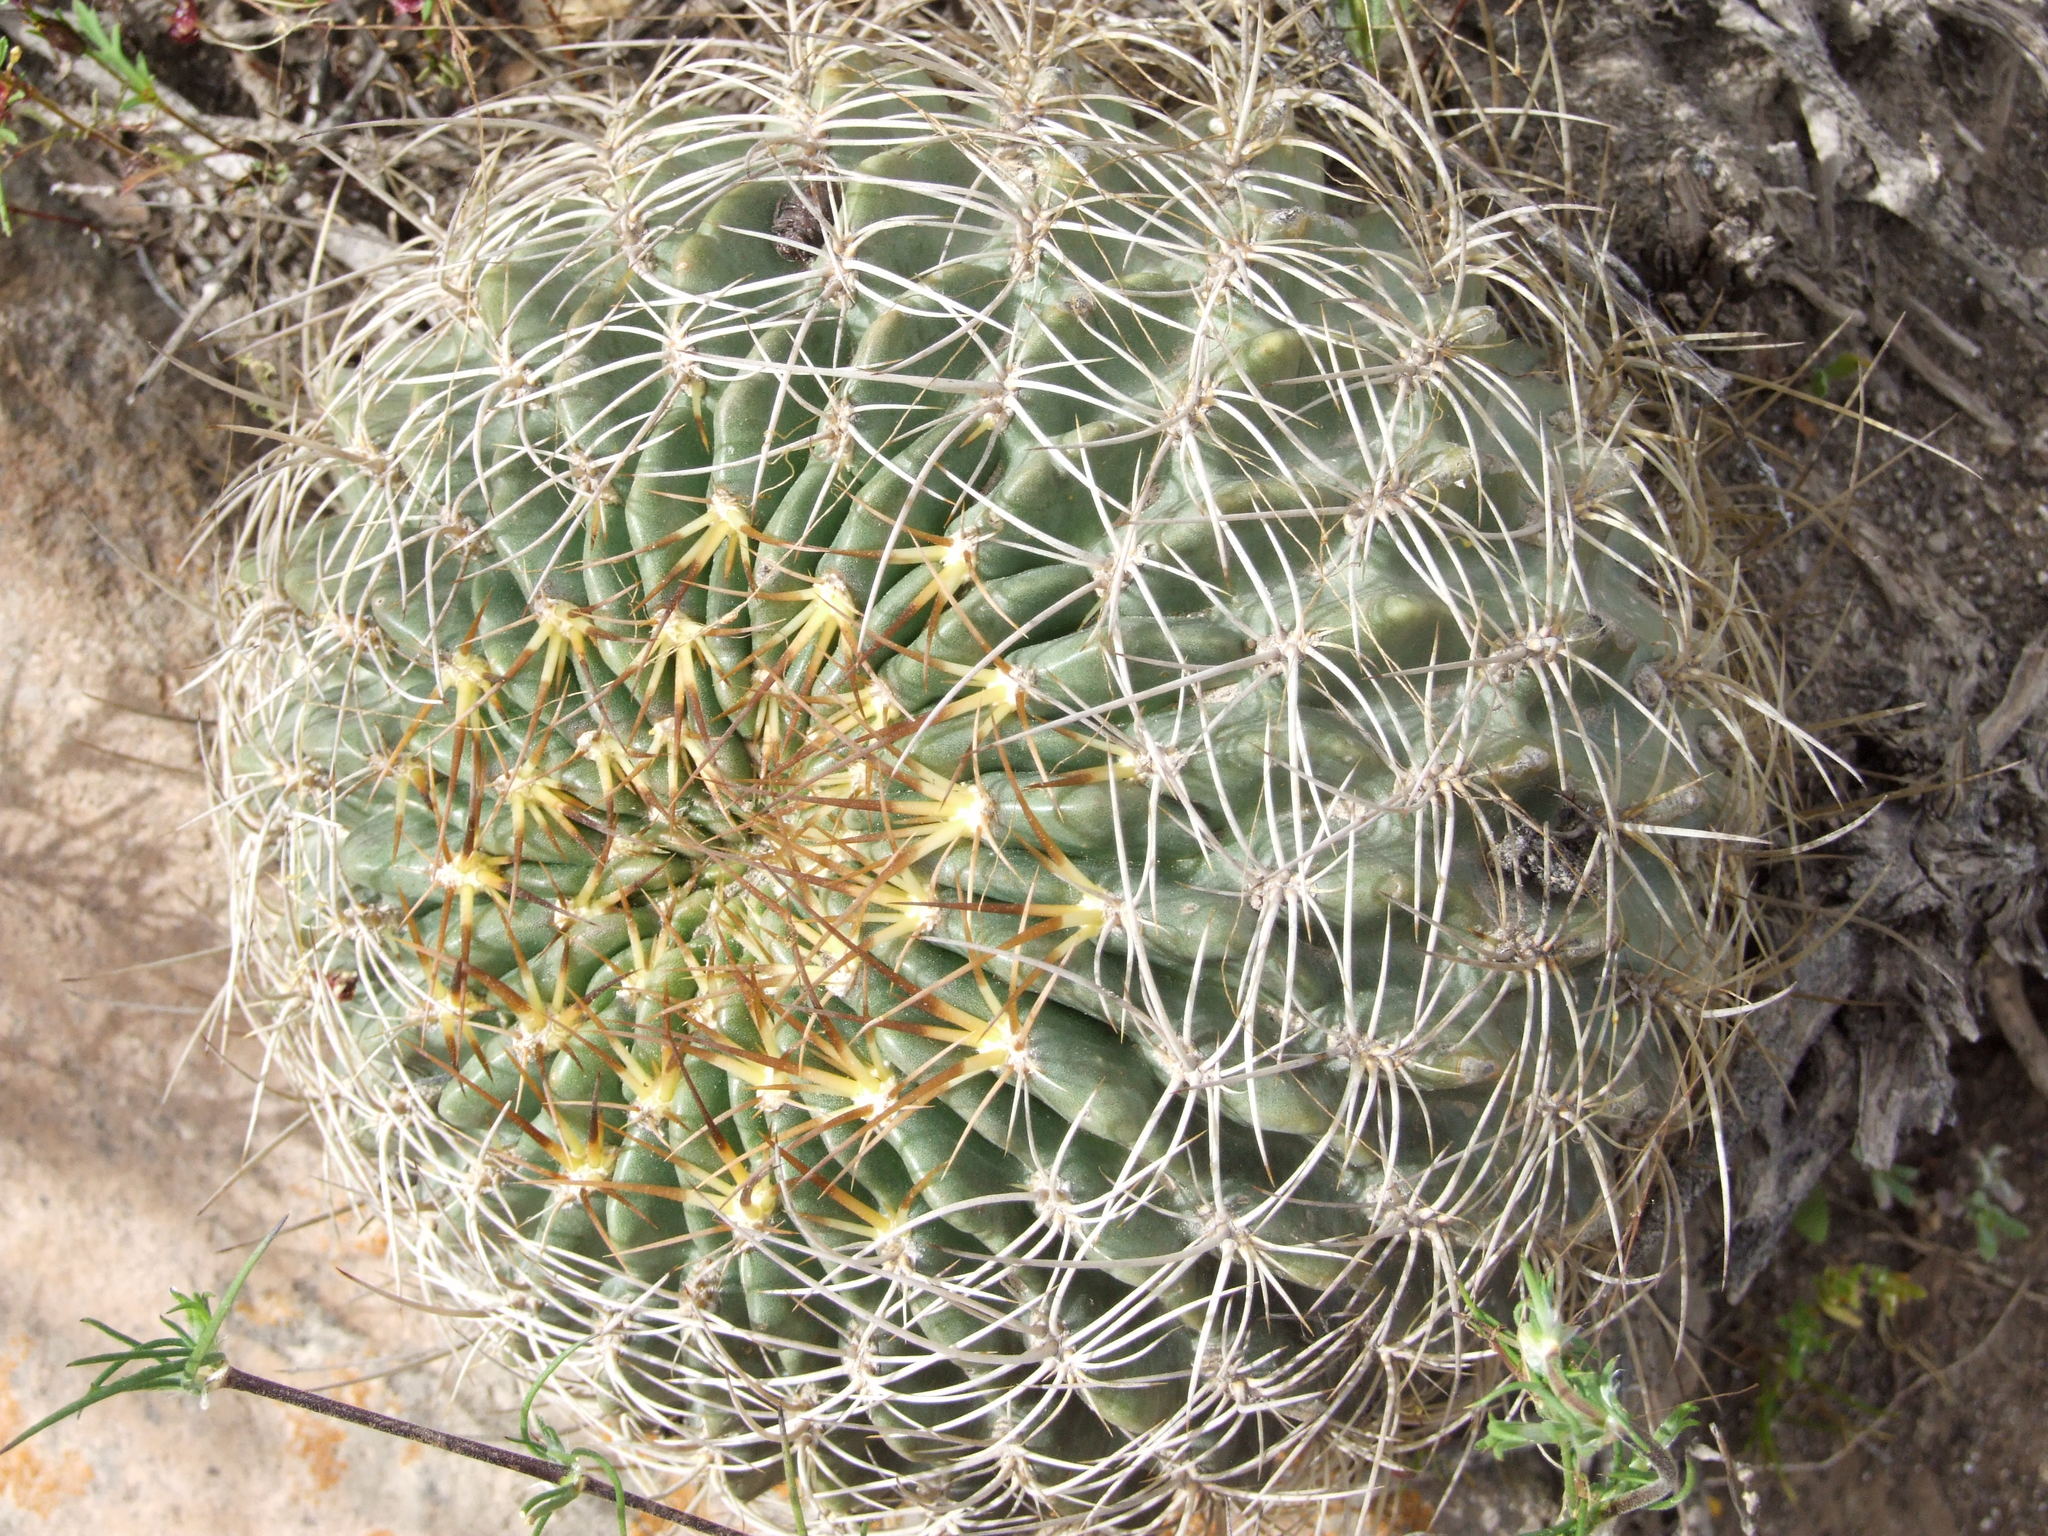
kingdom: Plantae
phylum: Tracheophyta
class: Magnoliopsida
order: Caryophyllales
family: Cactaceae
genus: Lobivia
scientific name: Lobivia pampana
